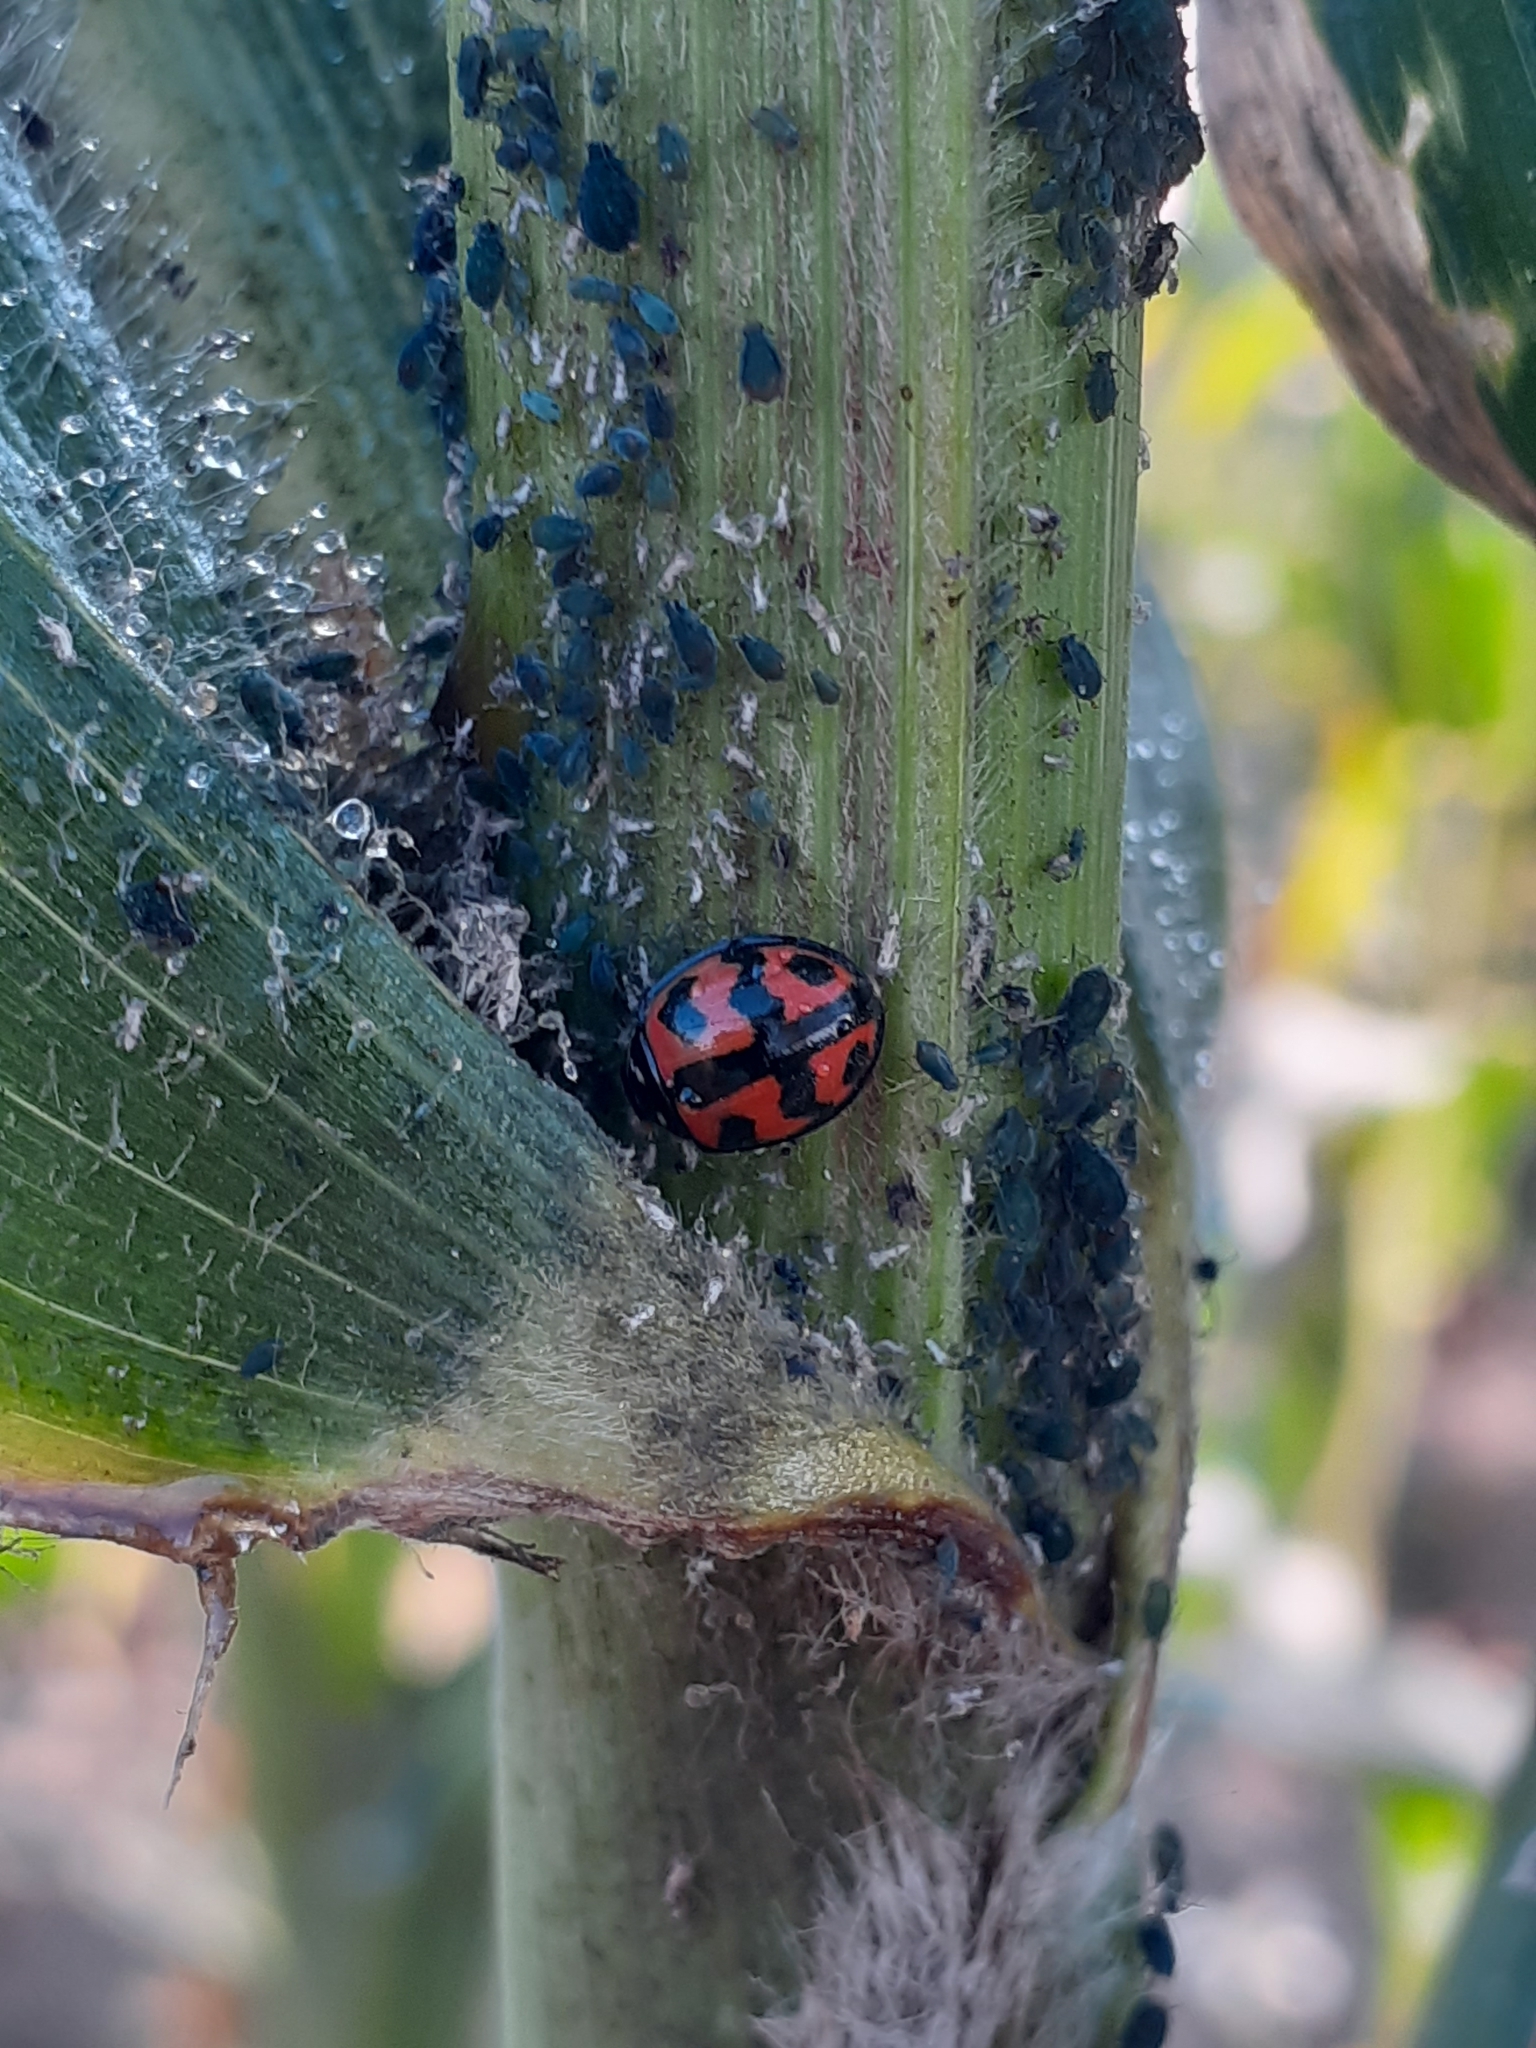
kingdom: Animalia
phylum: Arthropoda
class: Insecta
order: Coleoptera
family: Coccinellidae
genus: Cheilomenes
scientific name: Cheilomenes sexmaculata
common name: Ladybird beetle
